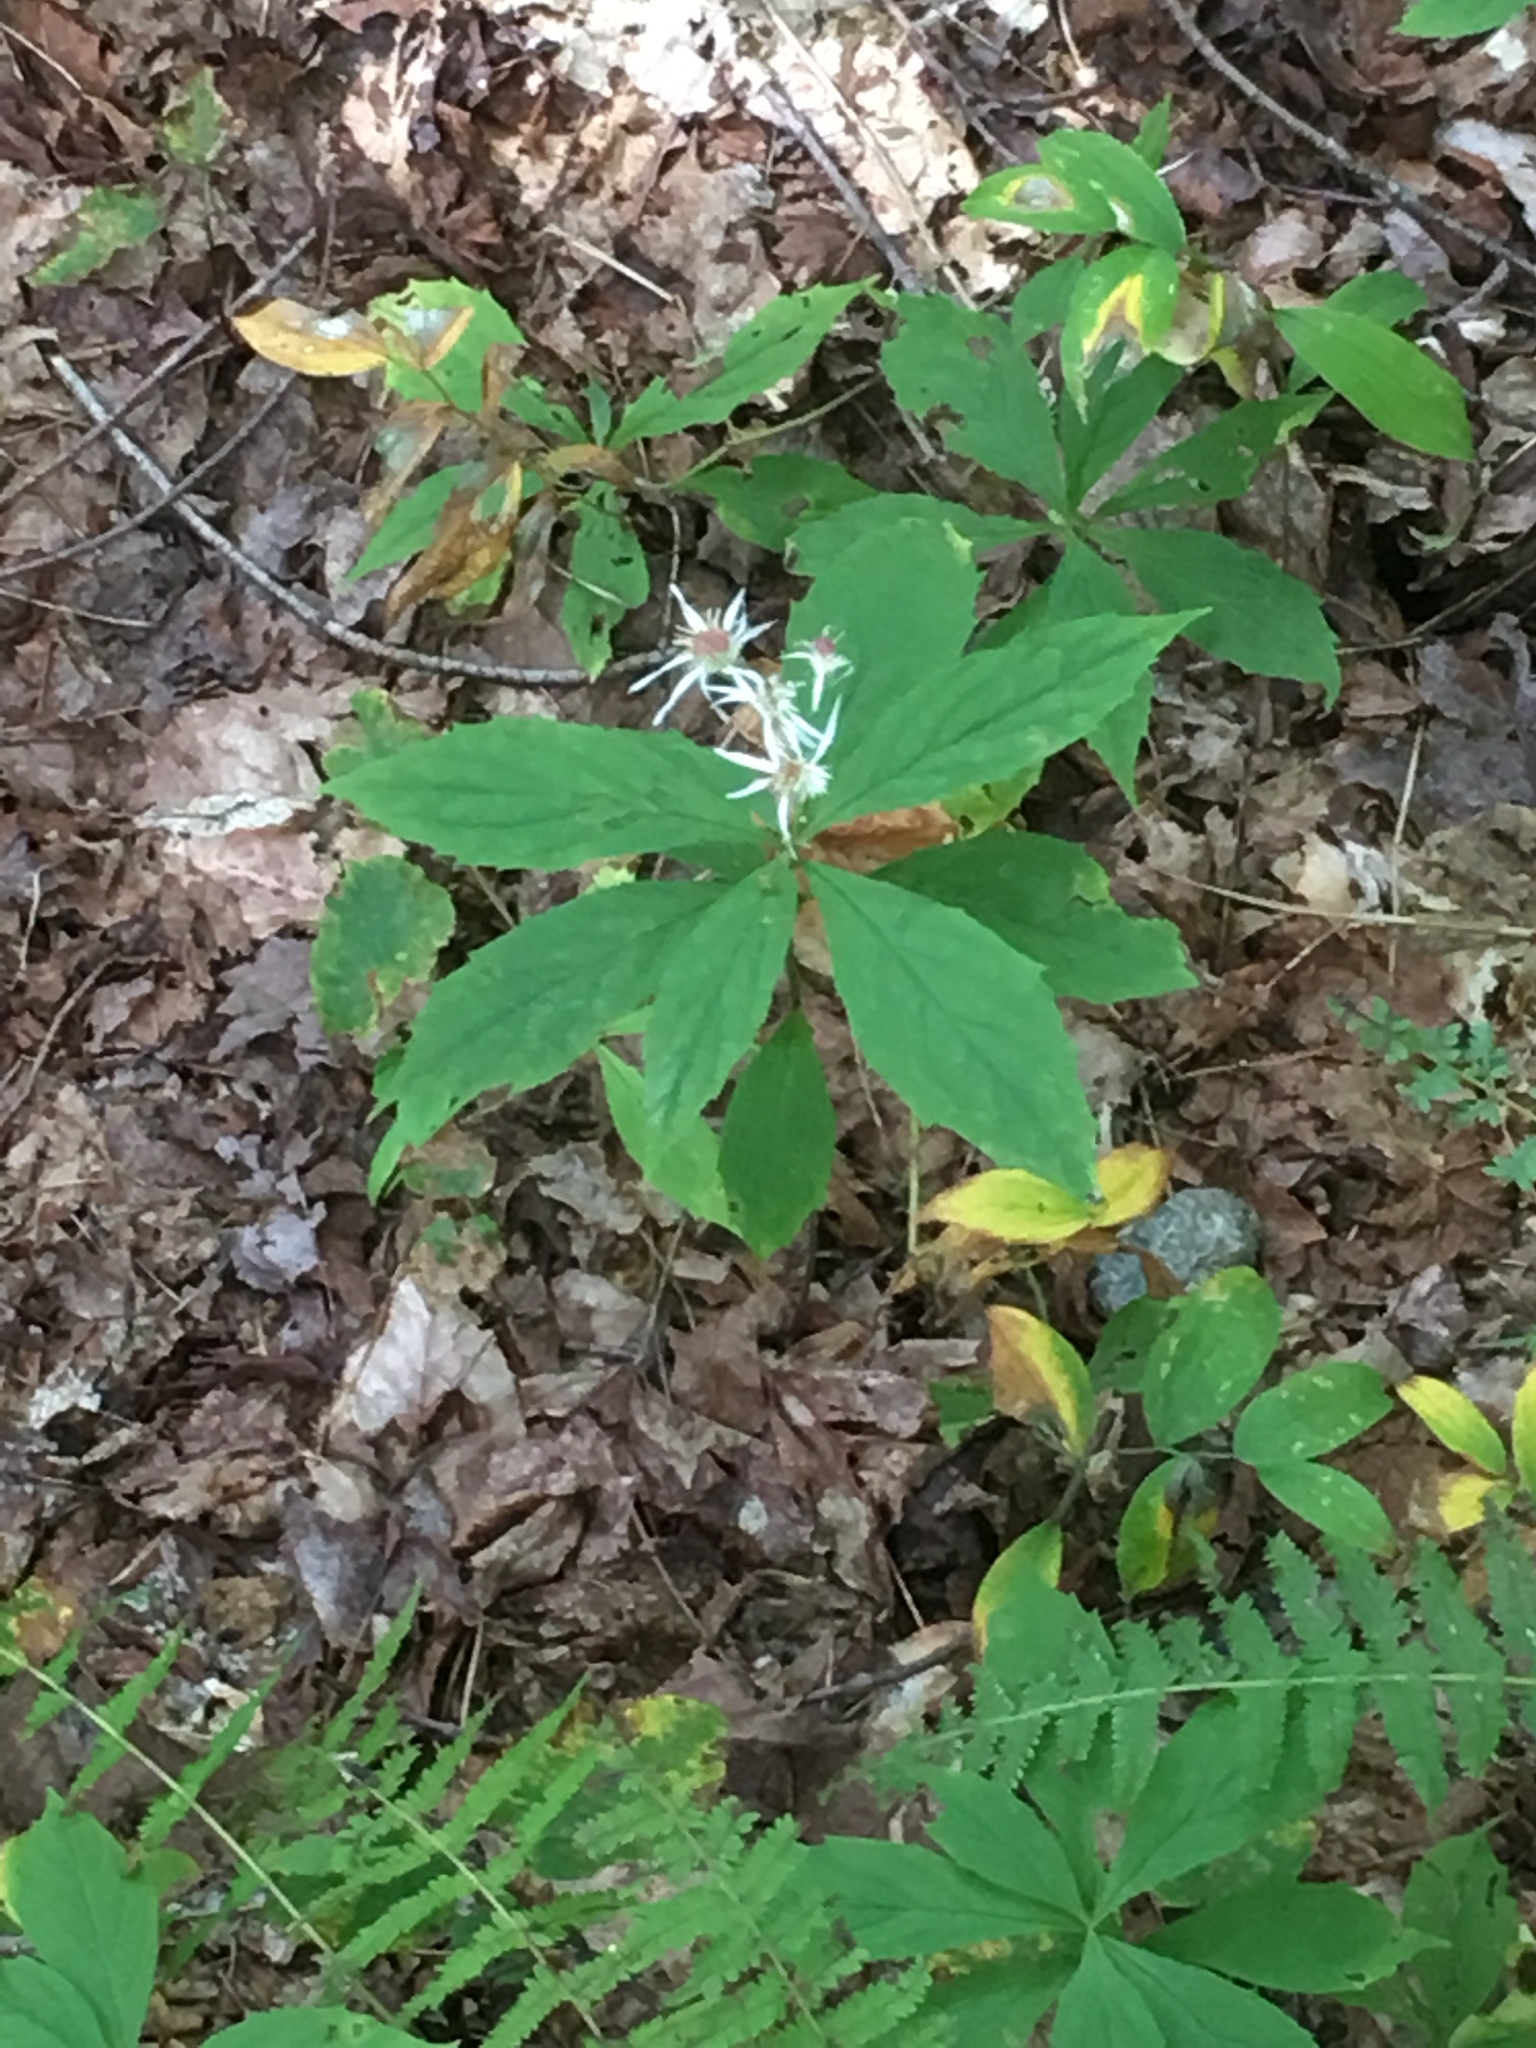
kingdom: Plantae
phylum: Tracheophyta
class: Magnoliopsida
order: Asterales
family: Asteraceae
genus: Oclemena
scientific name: Oclemena acuminata
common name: Mountain aster
